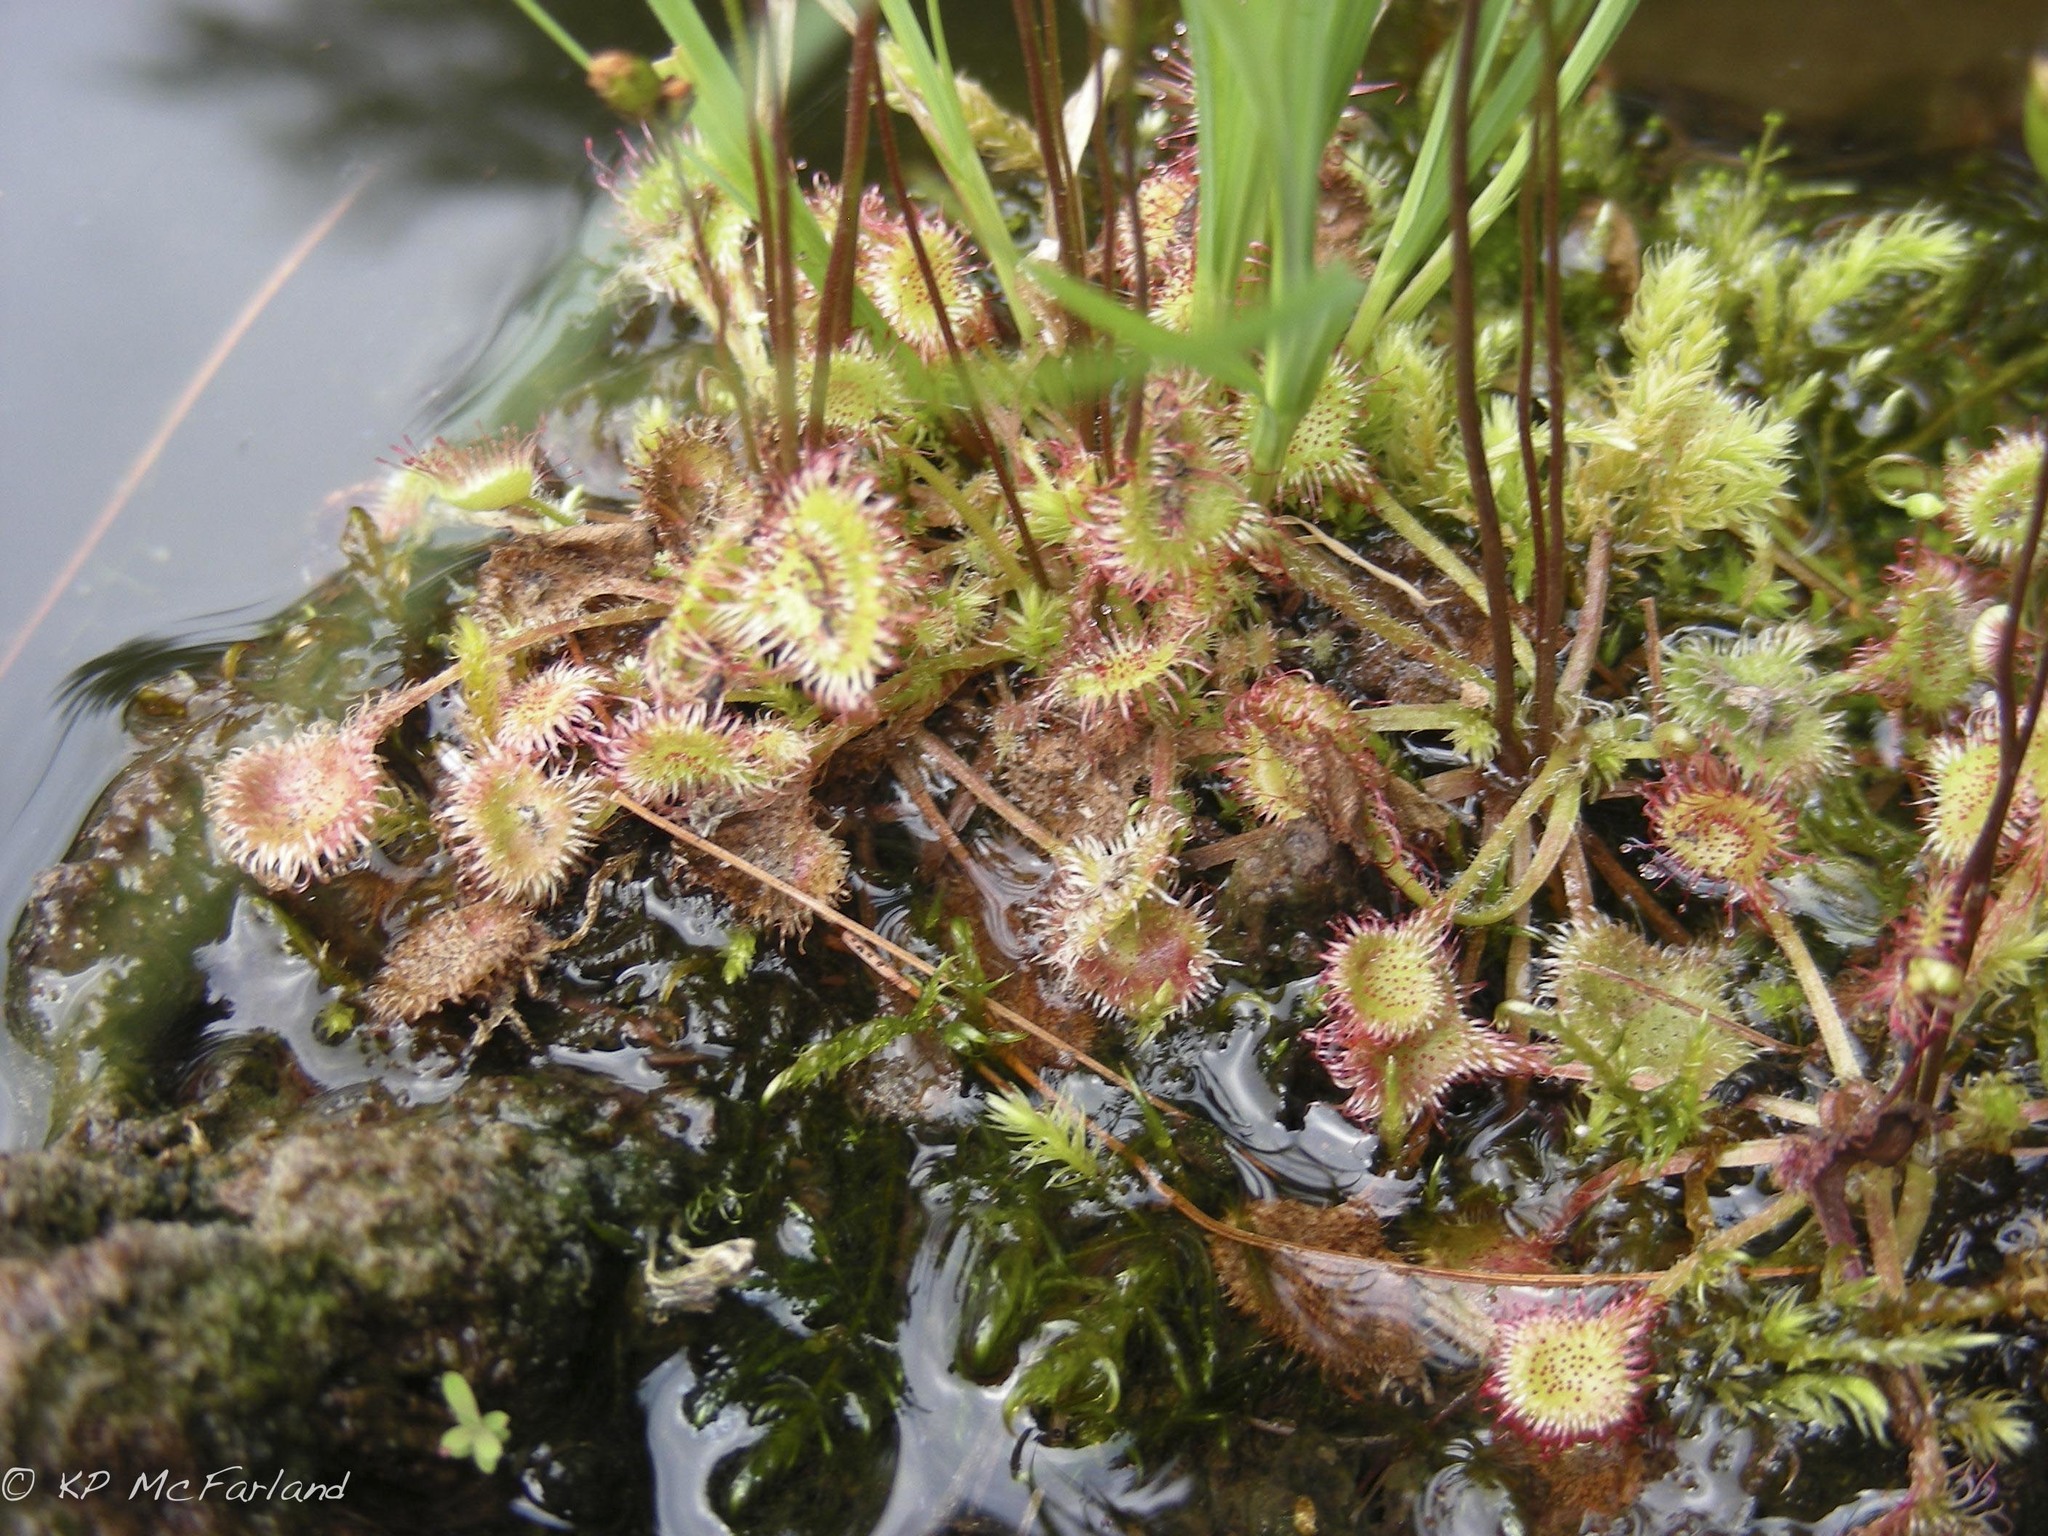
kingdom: Plantae
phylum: Tracheophyta
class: Magnoliopsida
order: Caryophyllales
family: Droseraceae
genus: Drosera
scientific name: Drosera rotundifolia
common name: Round-leaved sundew
